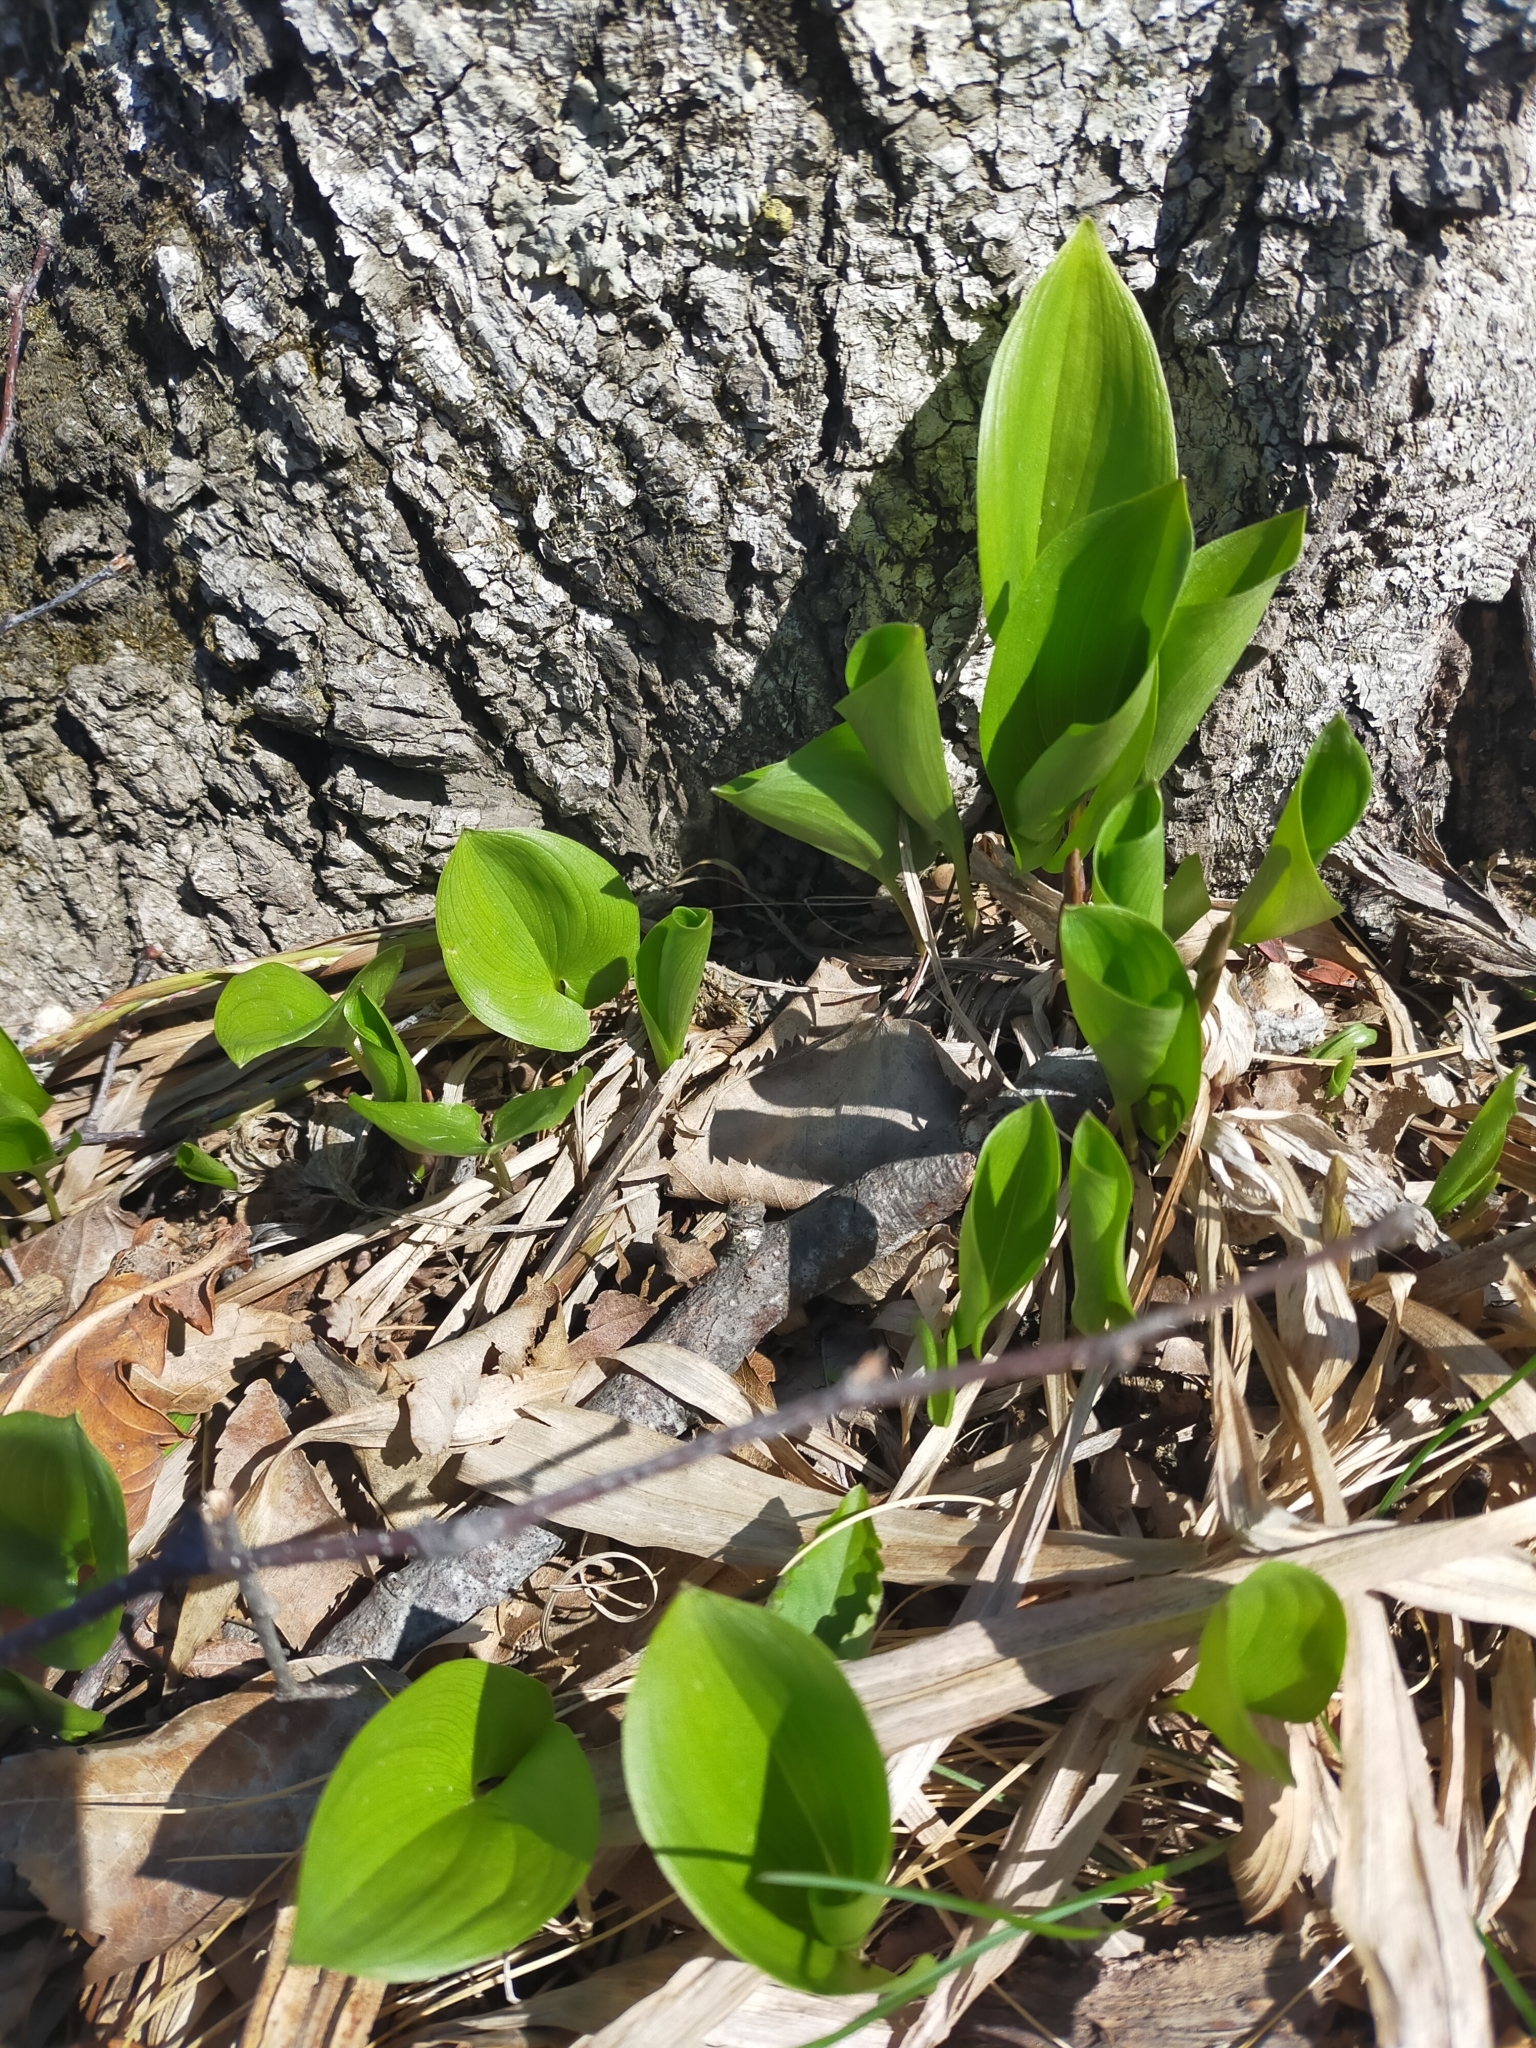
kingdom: Plantae
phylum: Tracheophyta
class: Liliopsida
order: Asparagales
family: Asparagaceae
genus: Maianthemum
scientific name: Maianthemum dilatatum
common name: False lily-of-the-valley
